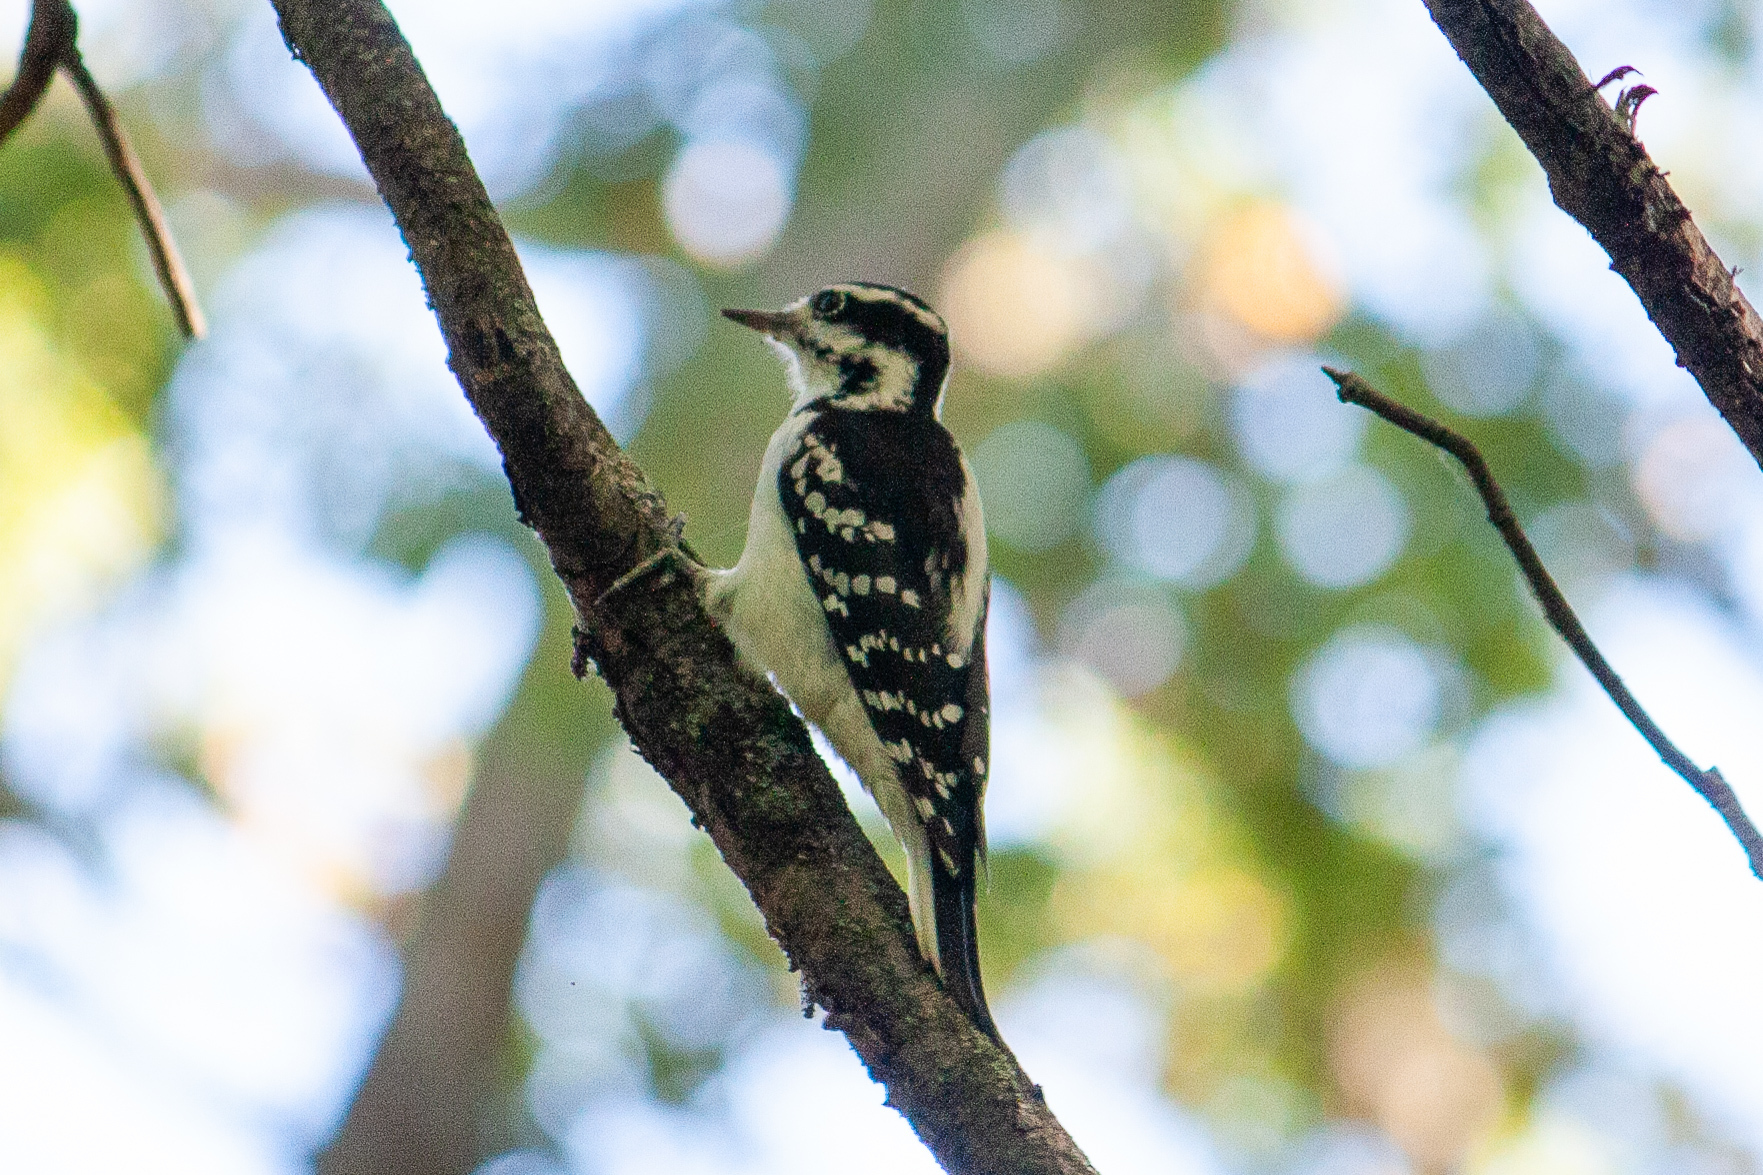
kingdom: Animalia
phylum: Chordata
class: Aves
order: Piciformes
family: Picidae
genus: Dryobates
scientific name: Dryobates pubescens
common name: Downy woodpecker
